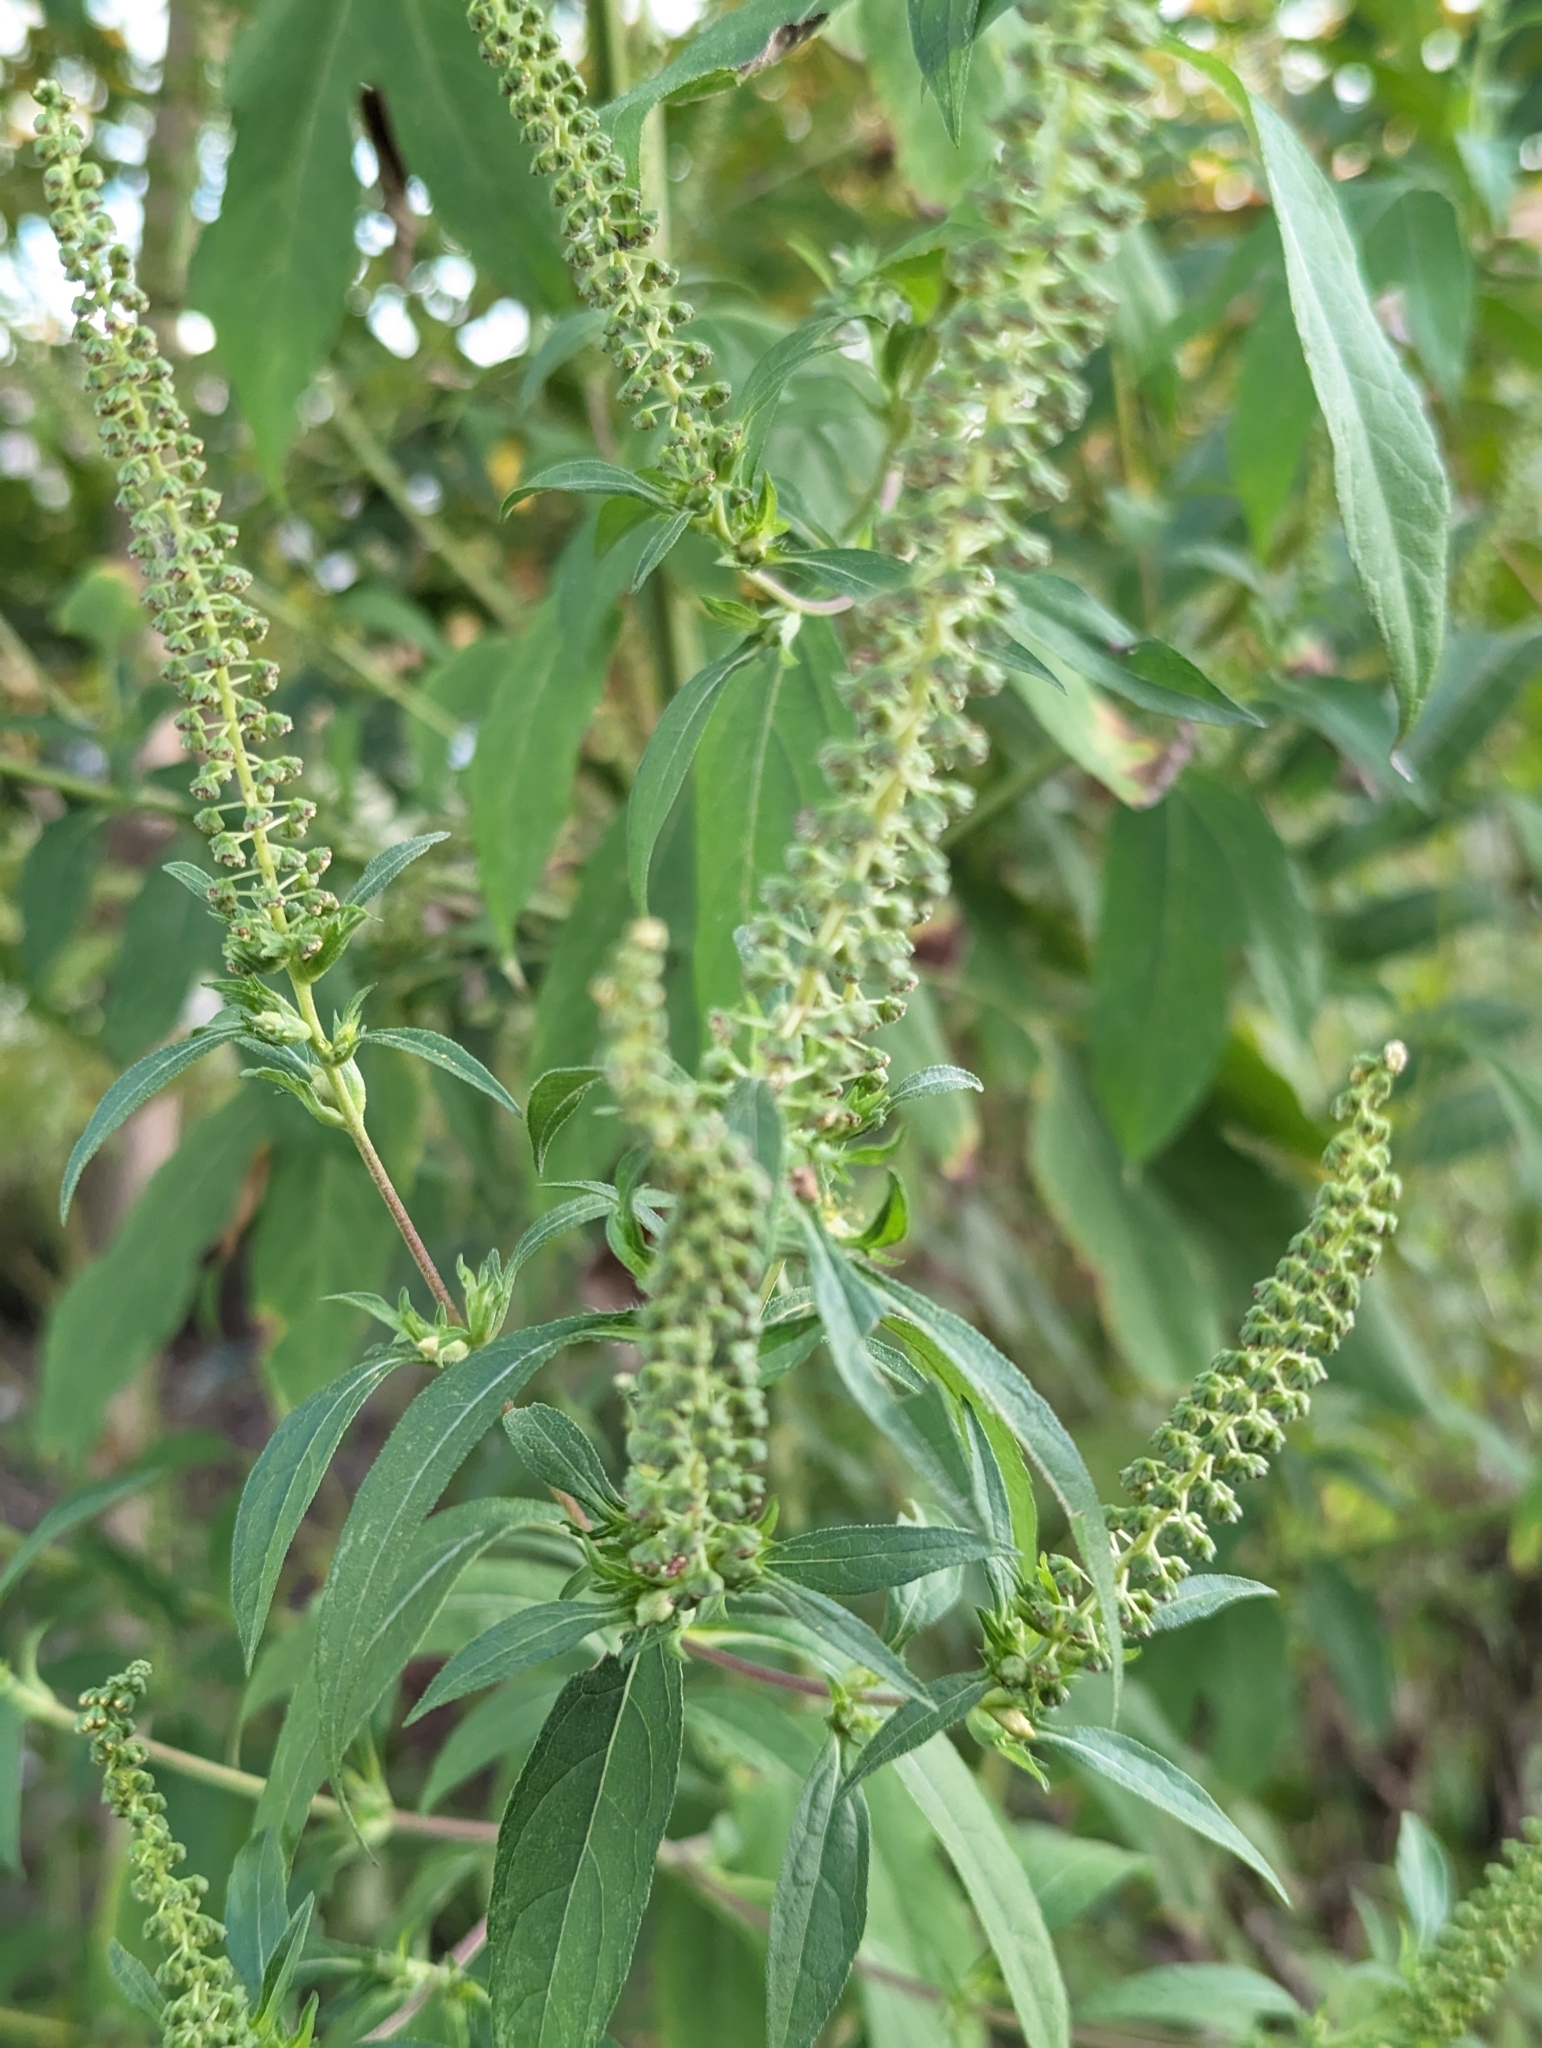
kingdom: Plantae
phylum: Tracheophyta
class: Magnoliopsida
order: Asterales
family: Asteraceae
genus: Ambrosia
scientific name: Ambrosia trifida
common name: Giant ragweed
